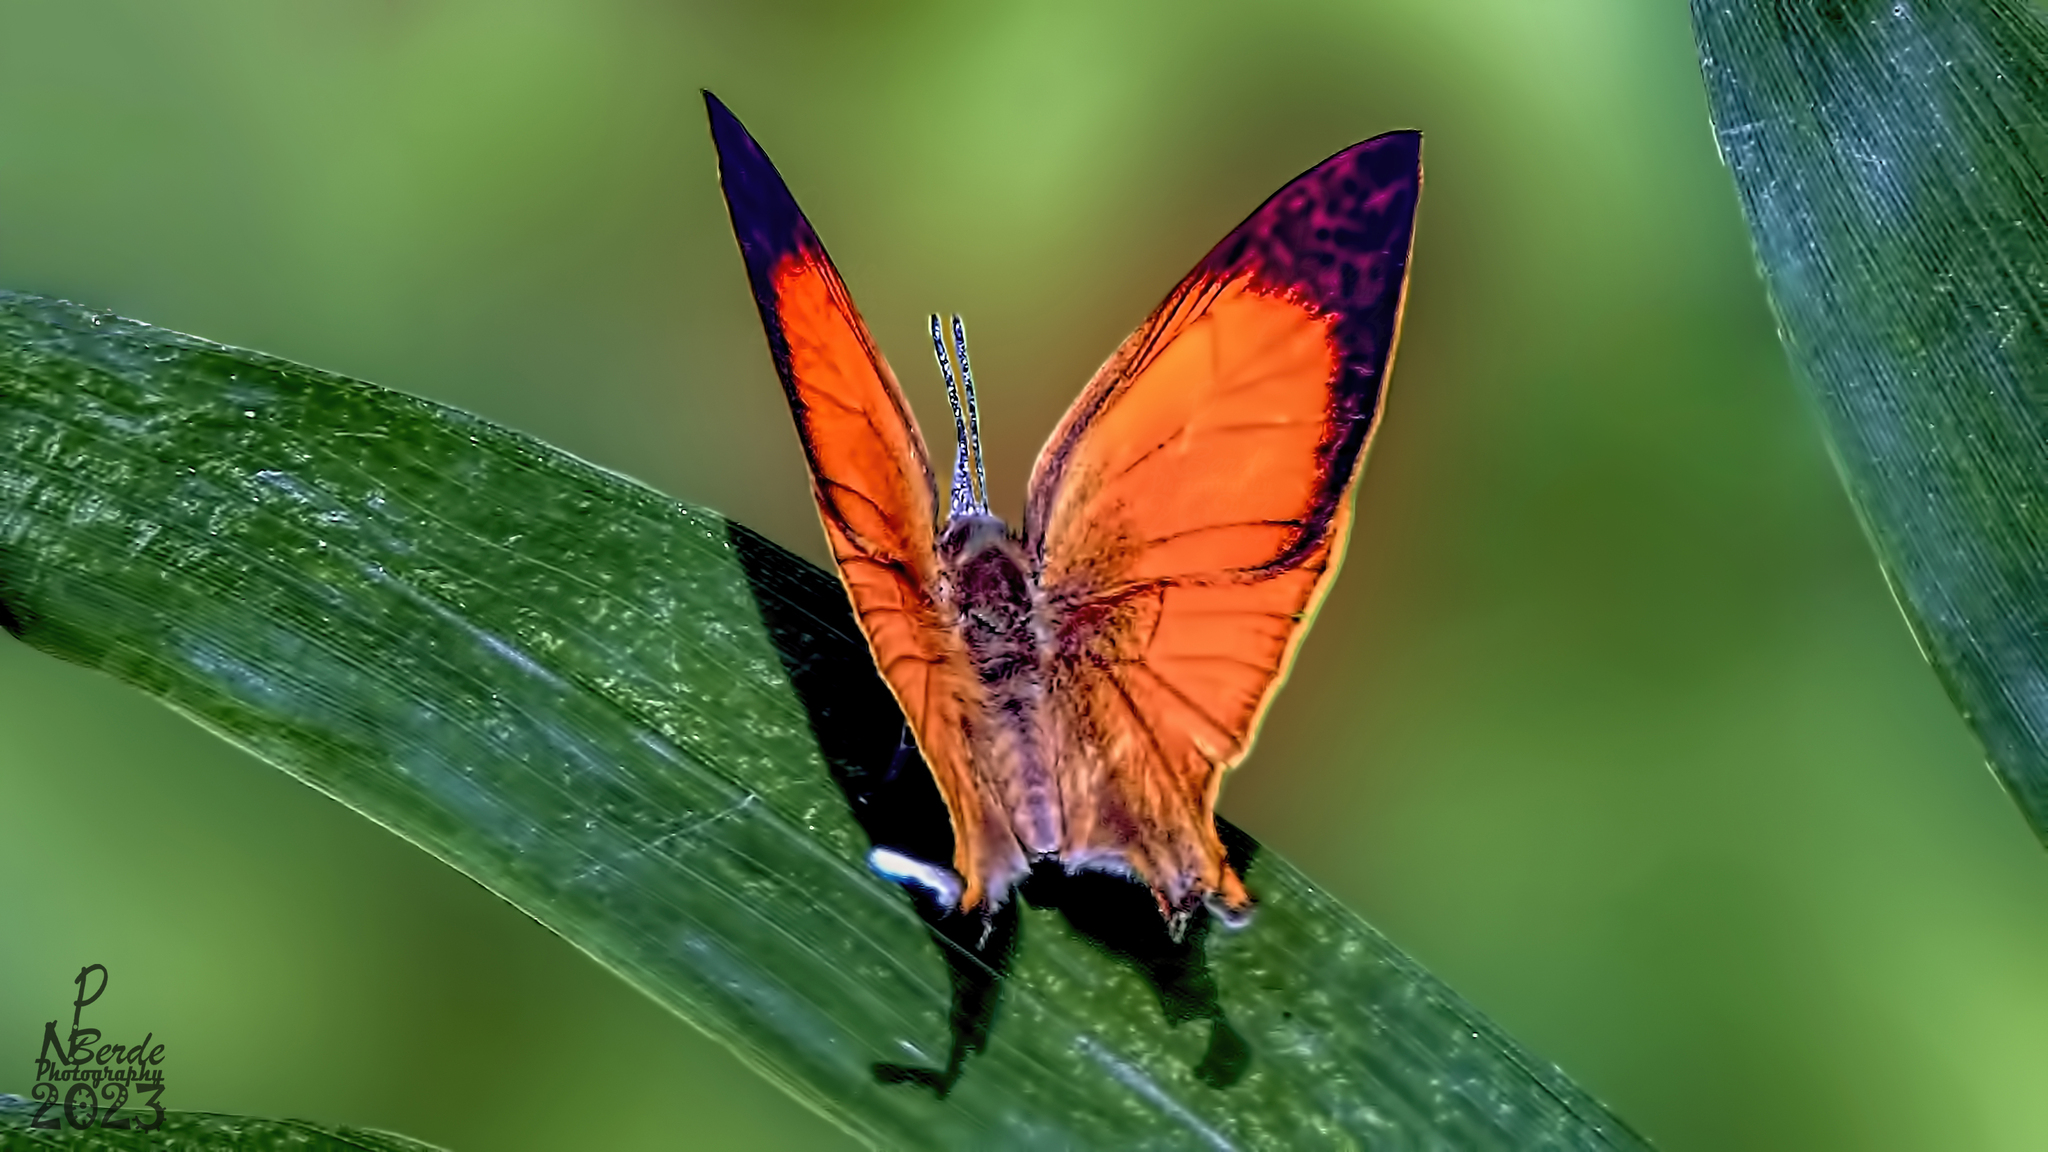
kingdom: Animalia
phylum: Arthropoda
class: Insecta
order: Lepidoptera
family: Lycaenidae
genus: Loxura
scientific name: Loxura atymnus
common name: Common yamfly
